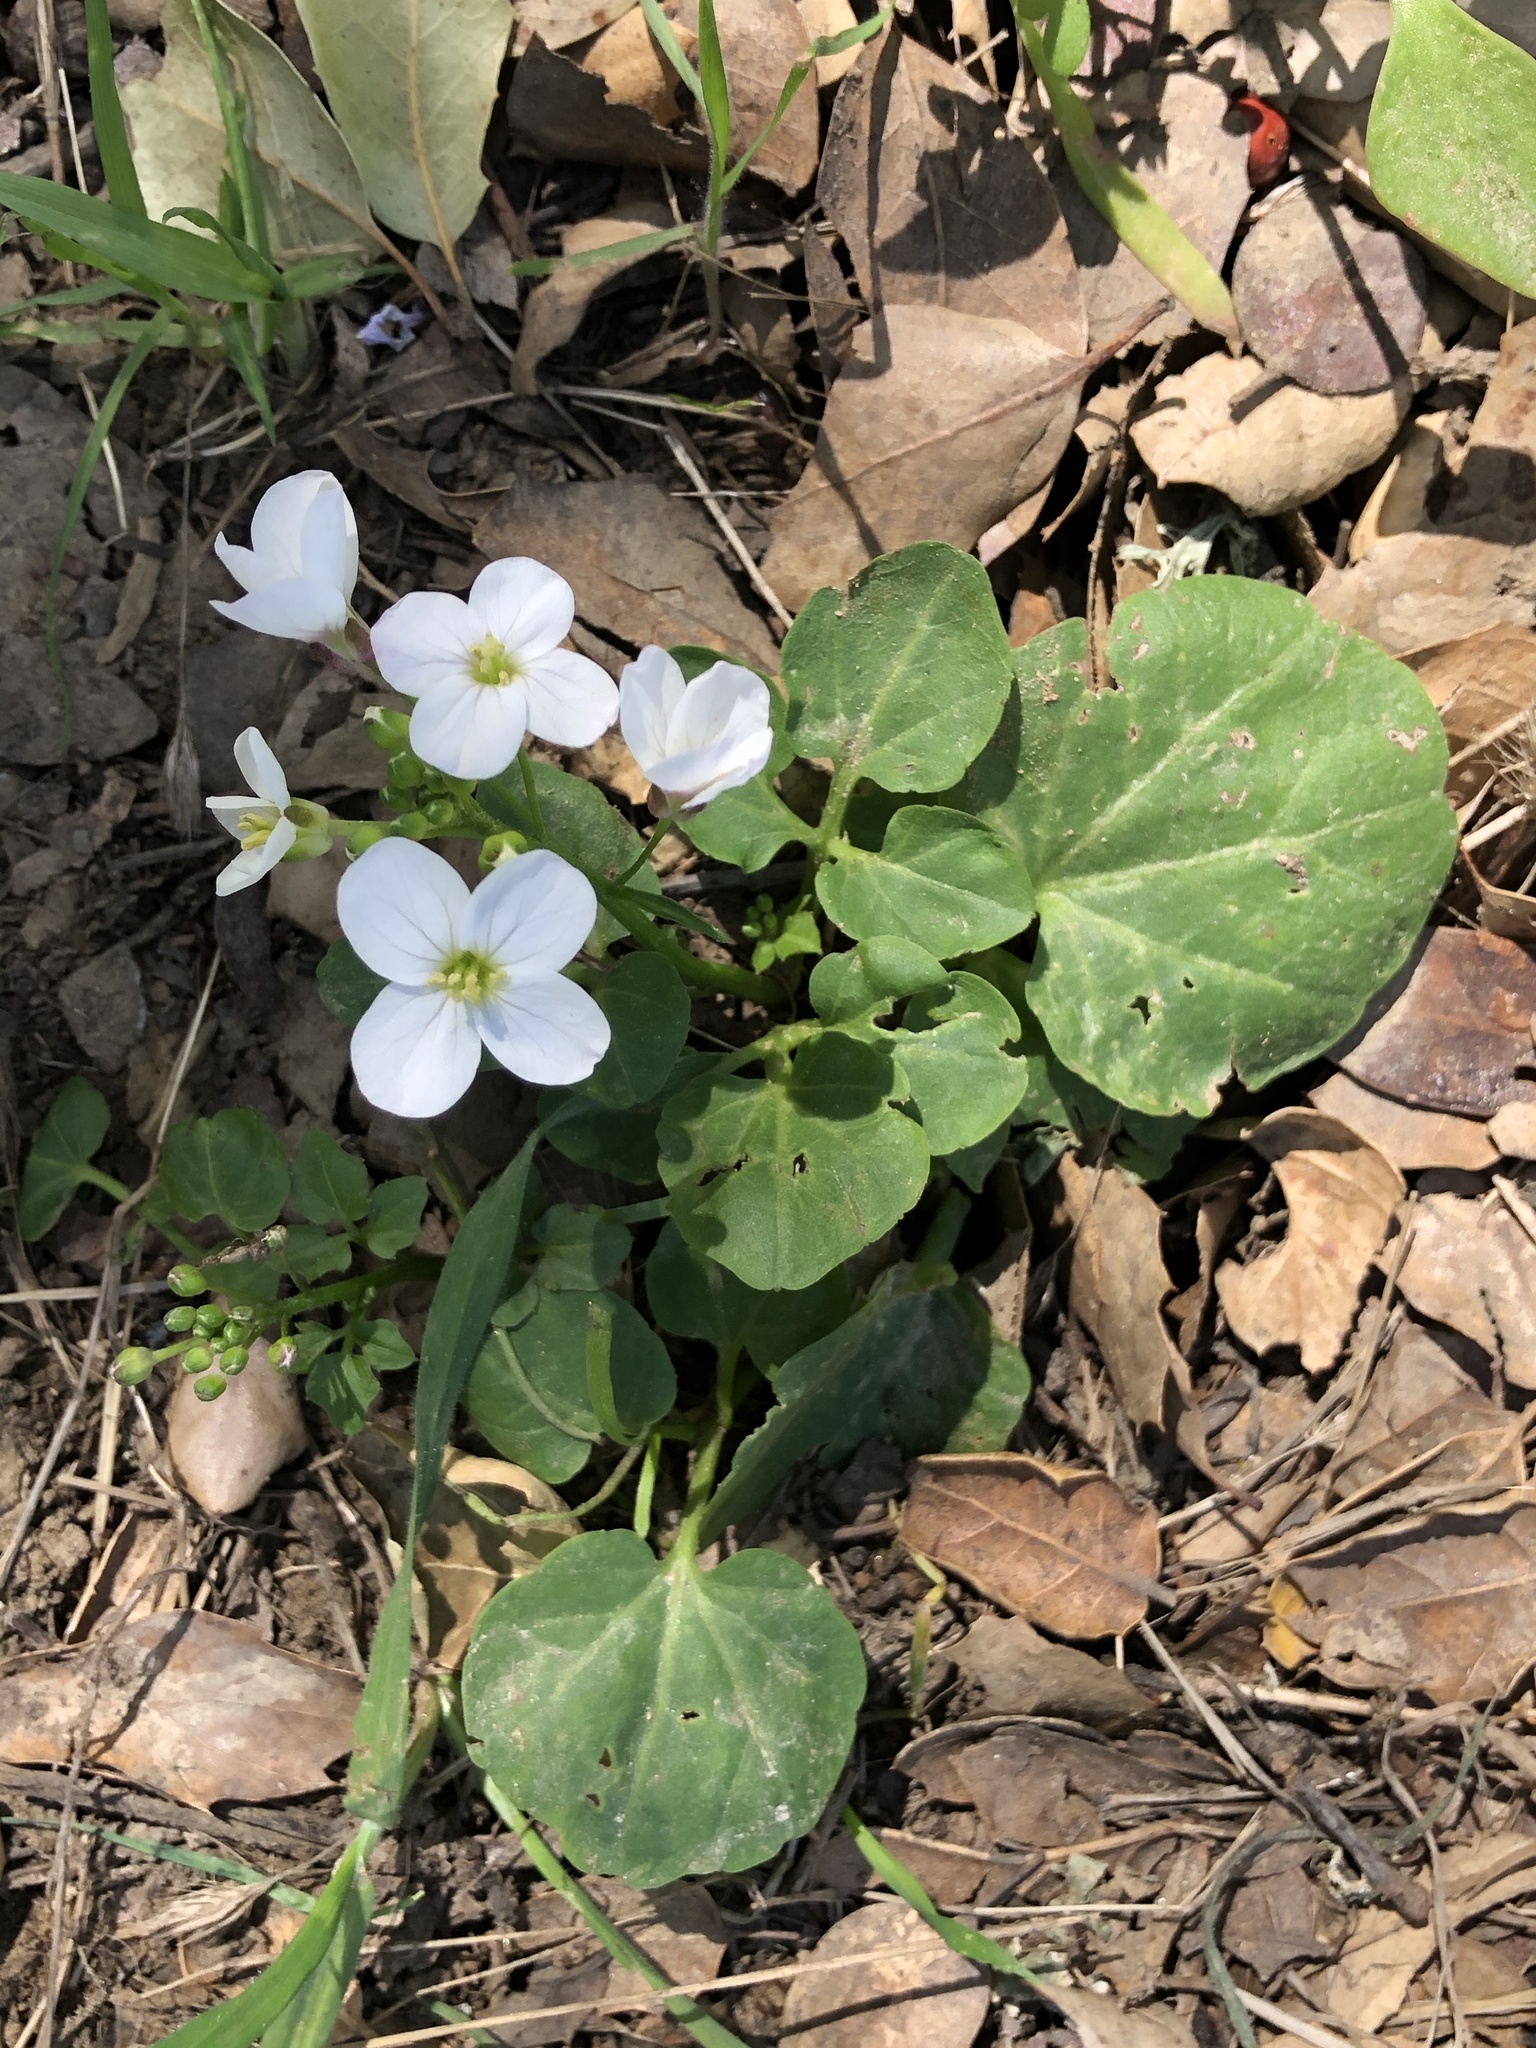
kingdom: Plantae
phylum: Tracheophyta
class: Magnoliopsida
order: Brassicales
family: Brassicaceae
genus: Cardamine
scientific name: Cardamine californica
